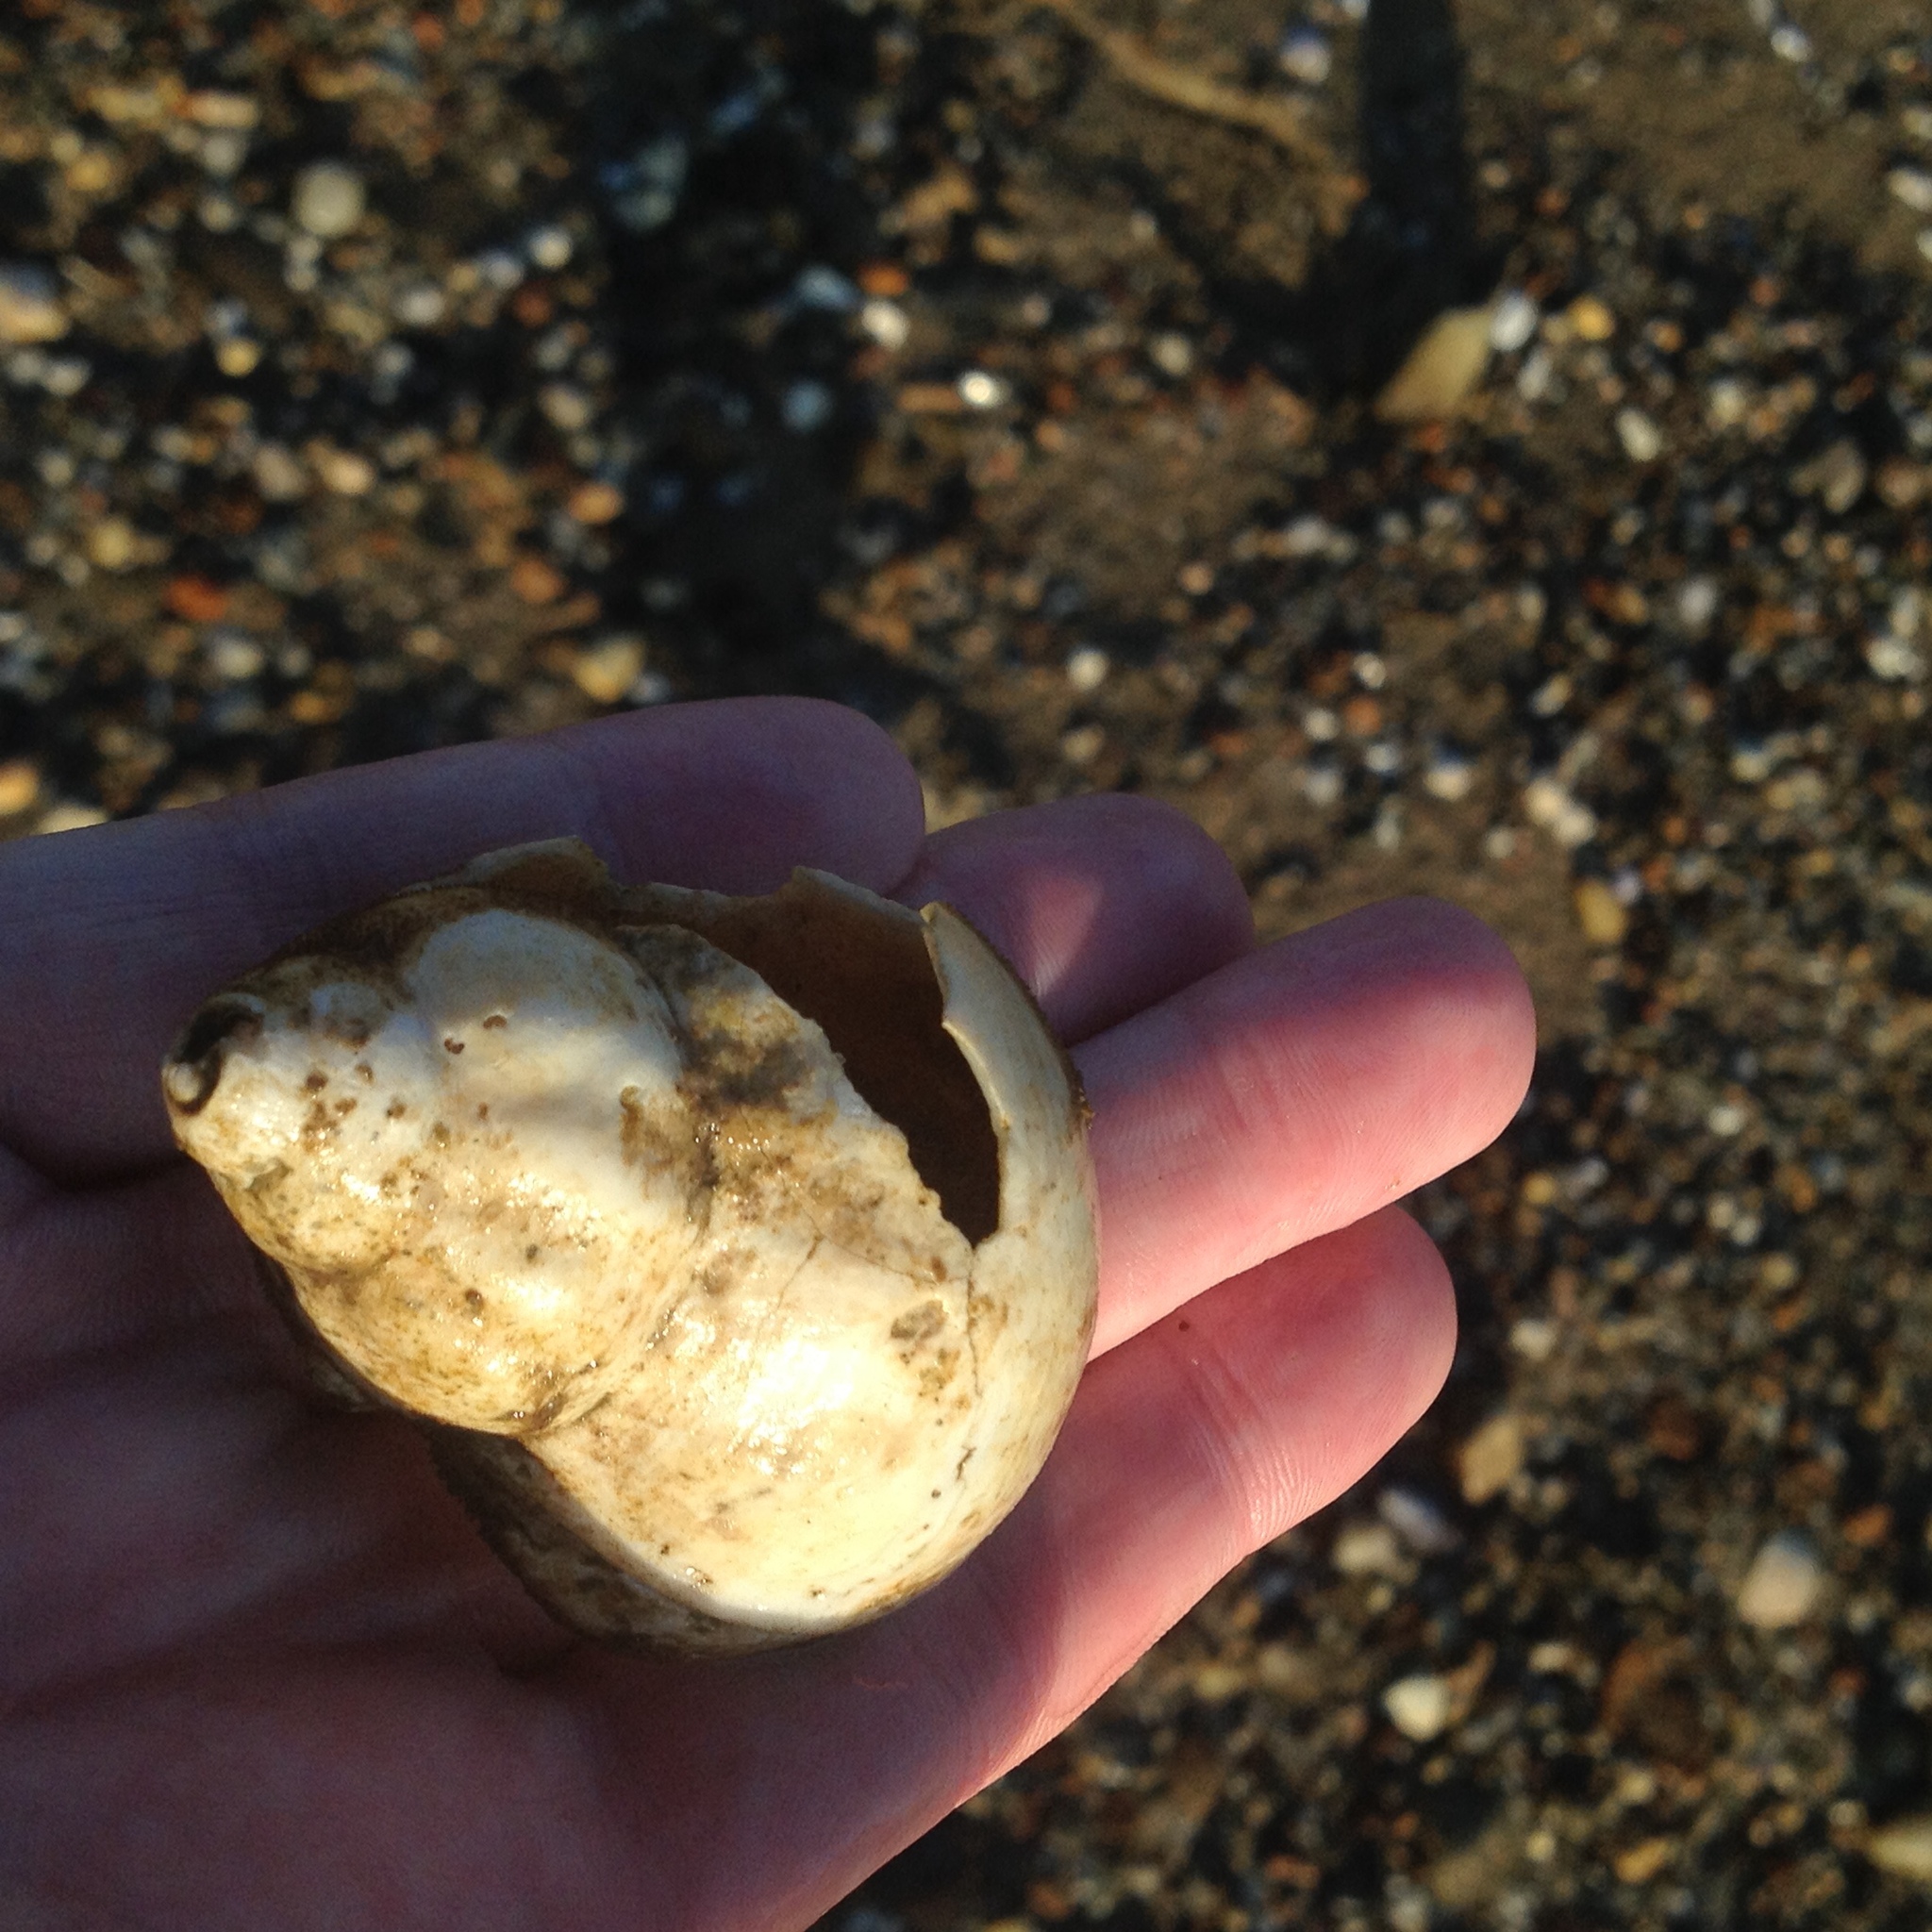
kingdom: Animalia
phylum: Mollusca
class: Gastropoda
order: Neogastropoda
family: Buccinidae
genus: Buccinum
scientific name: Buccinum undatum
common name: Common whelk
